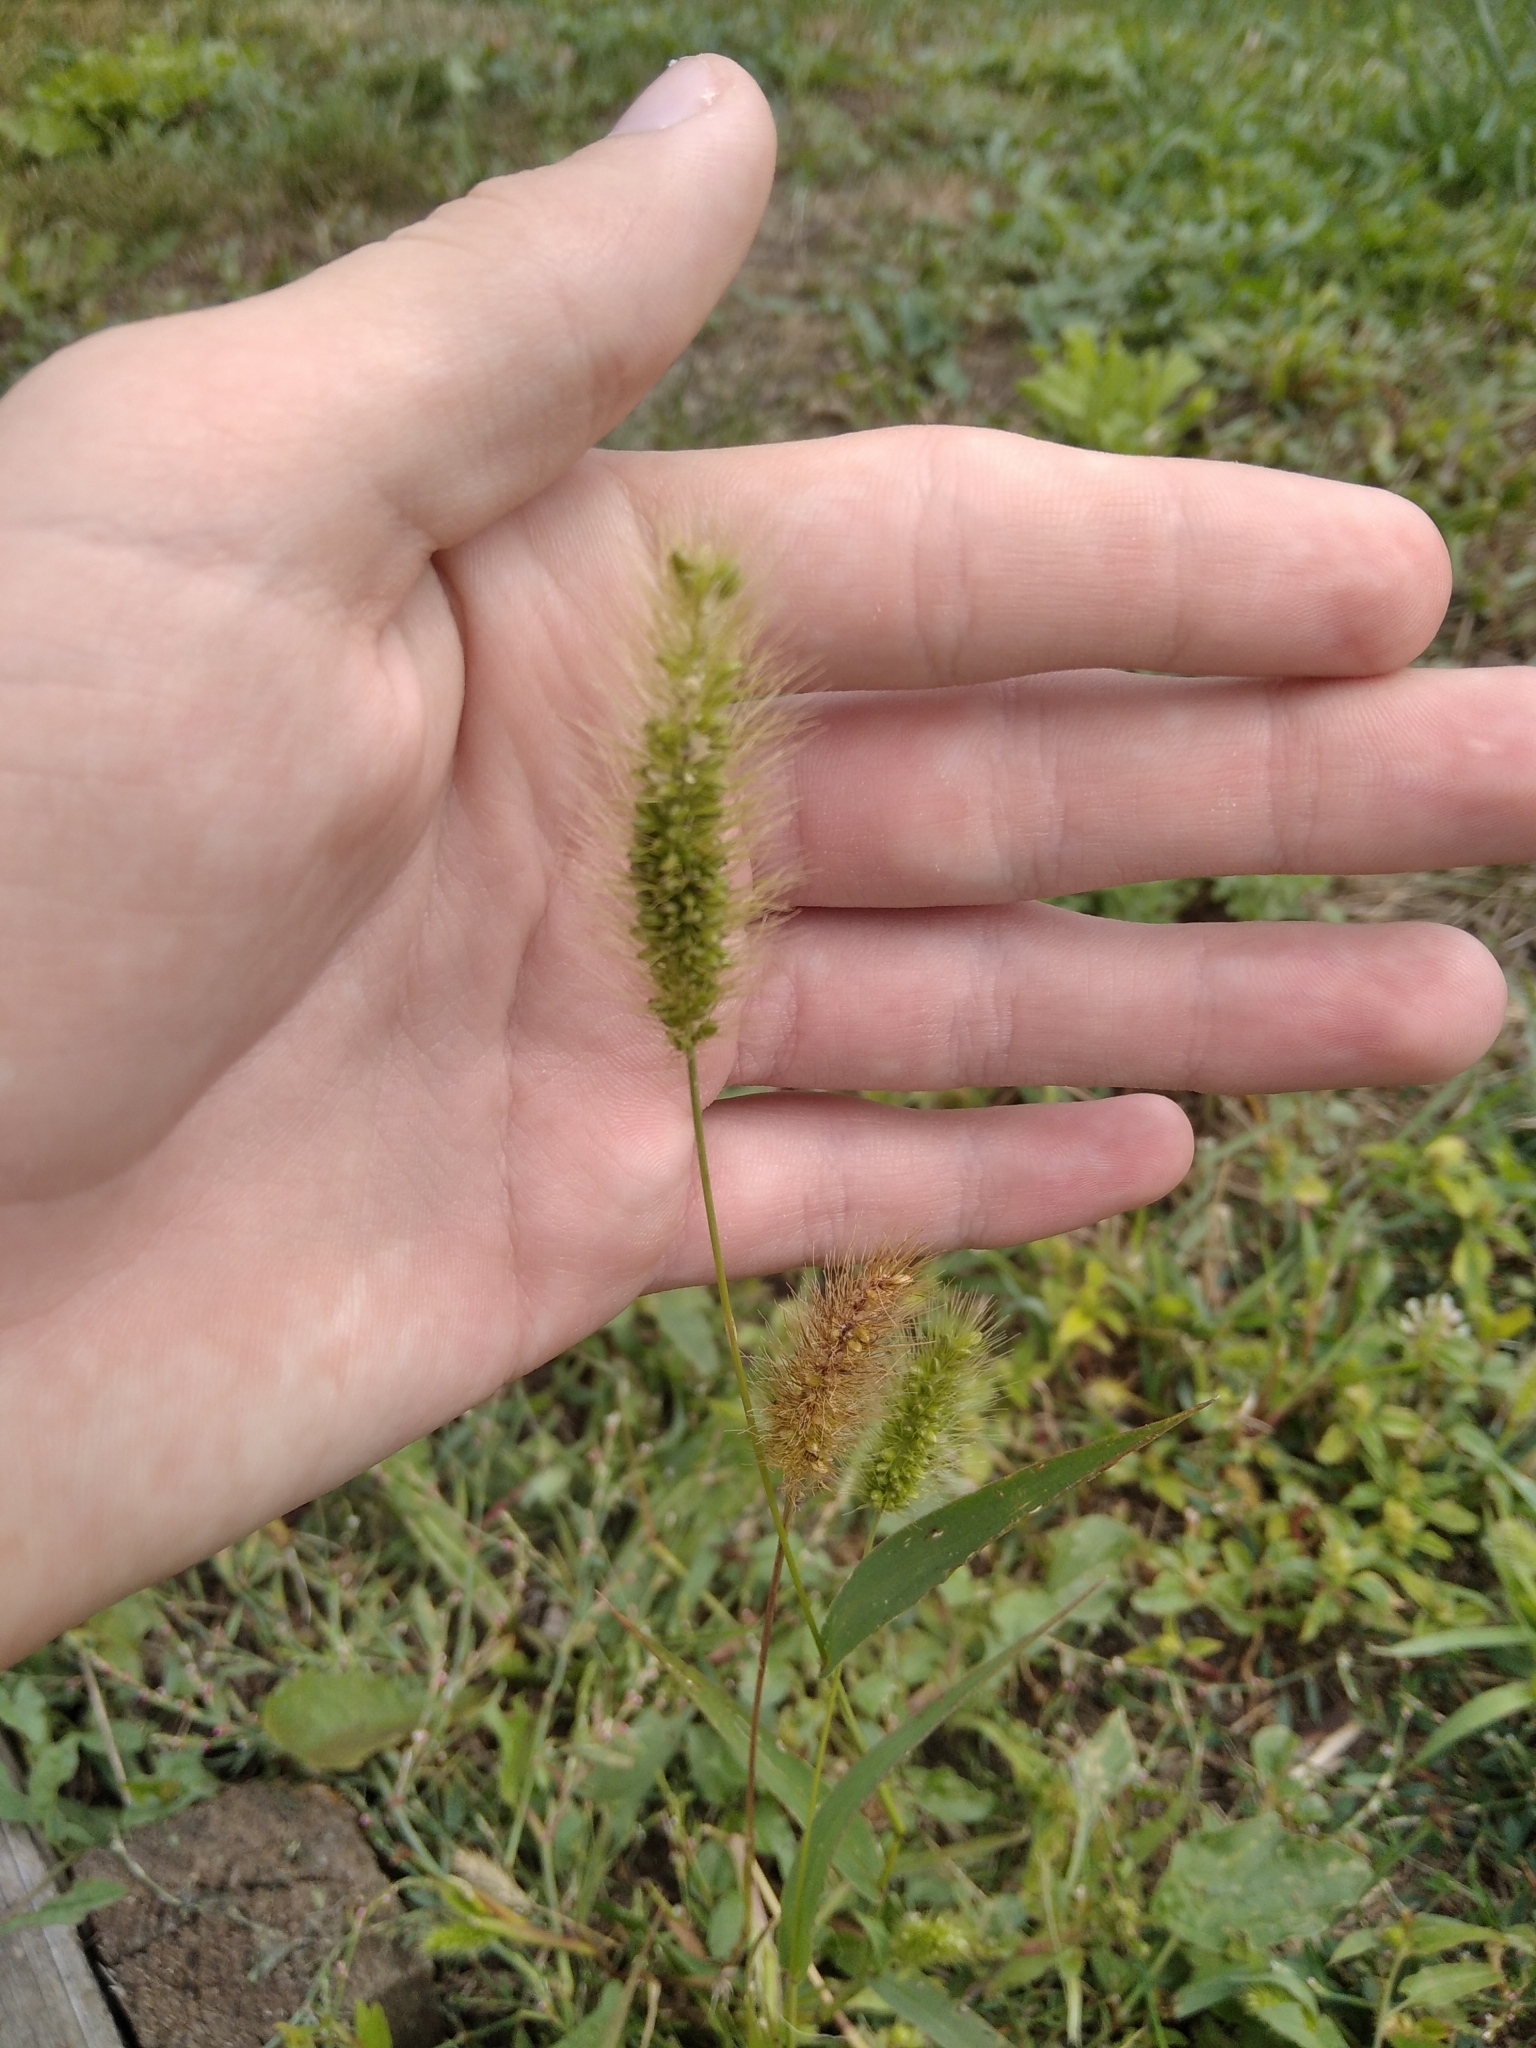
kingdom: Plantae
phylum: Tracheophyta
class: Liliopsida
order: Poales
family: Poaceae
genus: Setaria
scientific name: Setaria viridis
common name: Green bristlegrass
